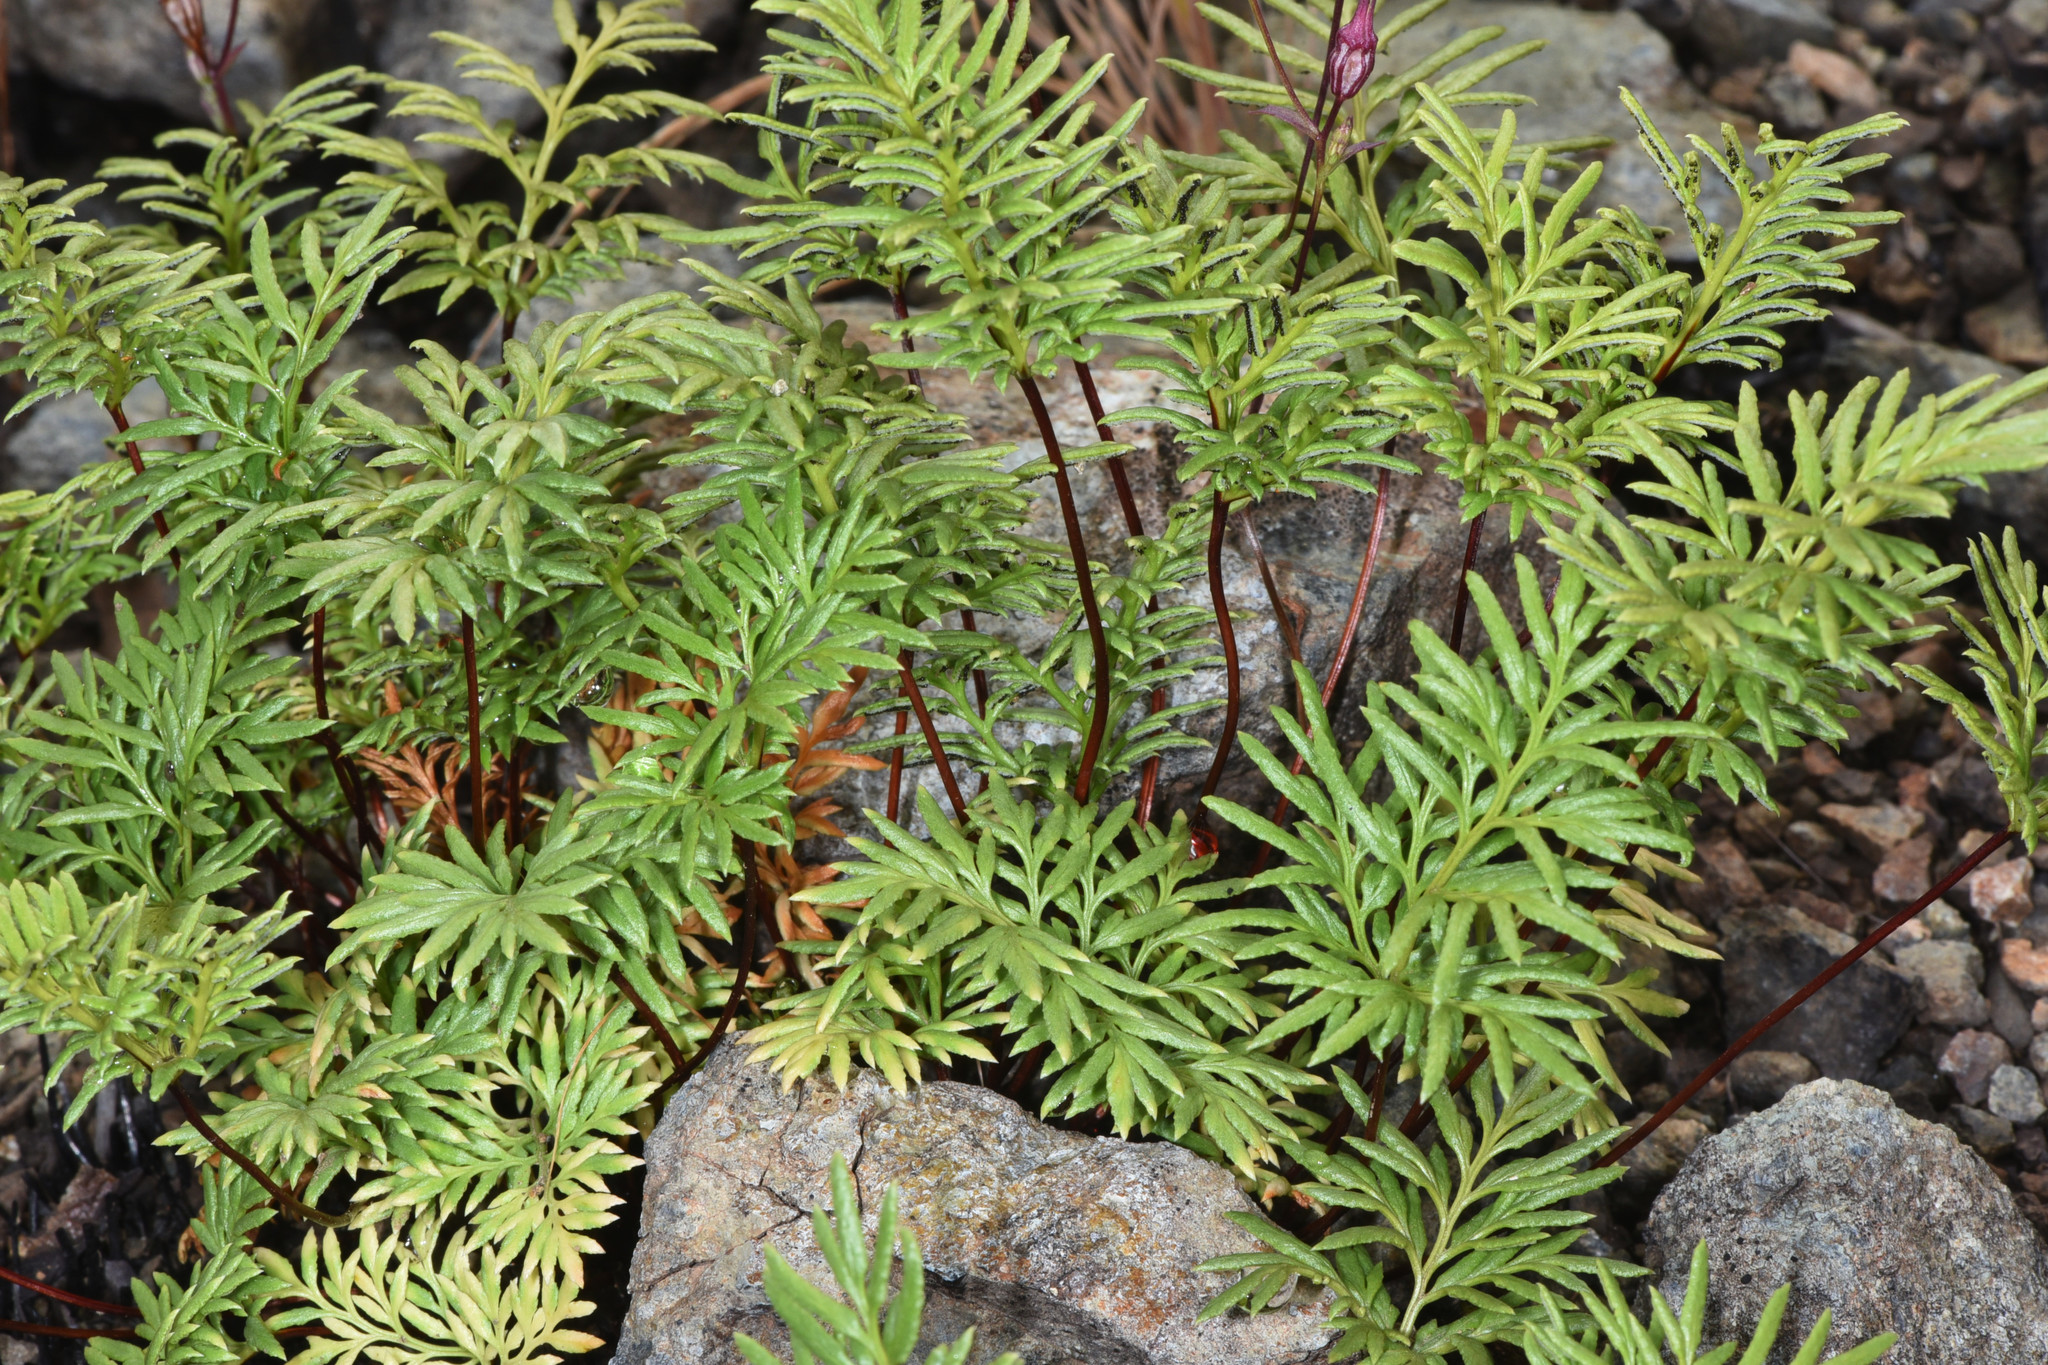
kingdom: Plantae
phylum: Tracheophyta
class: Polypodiopsida
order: Polypodiales
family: Pteridaceae
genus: Aspidotis
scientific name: Aspidotis densa
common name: Indian's dream
